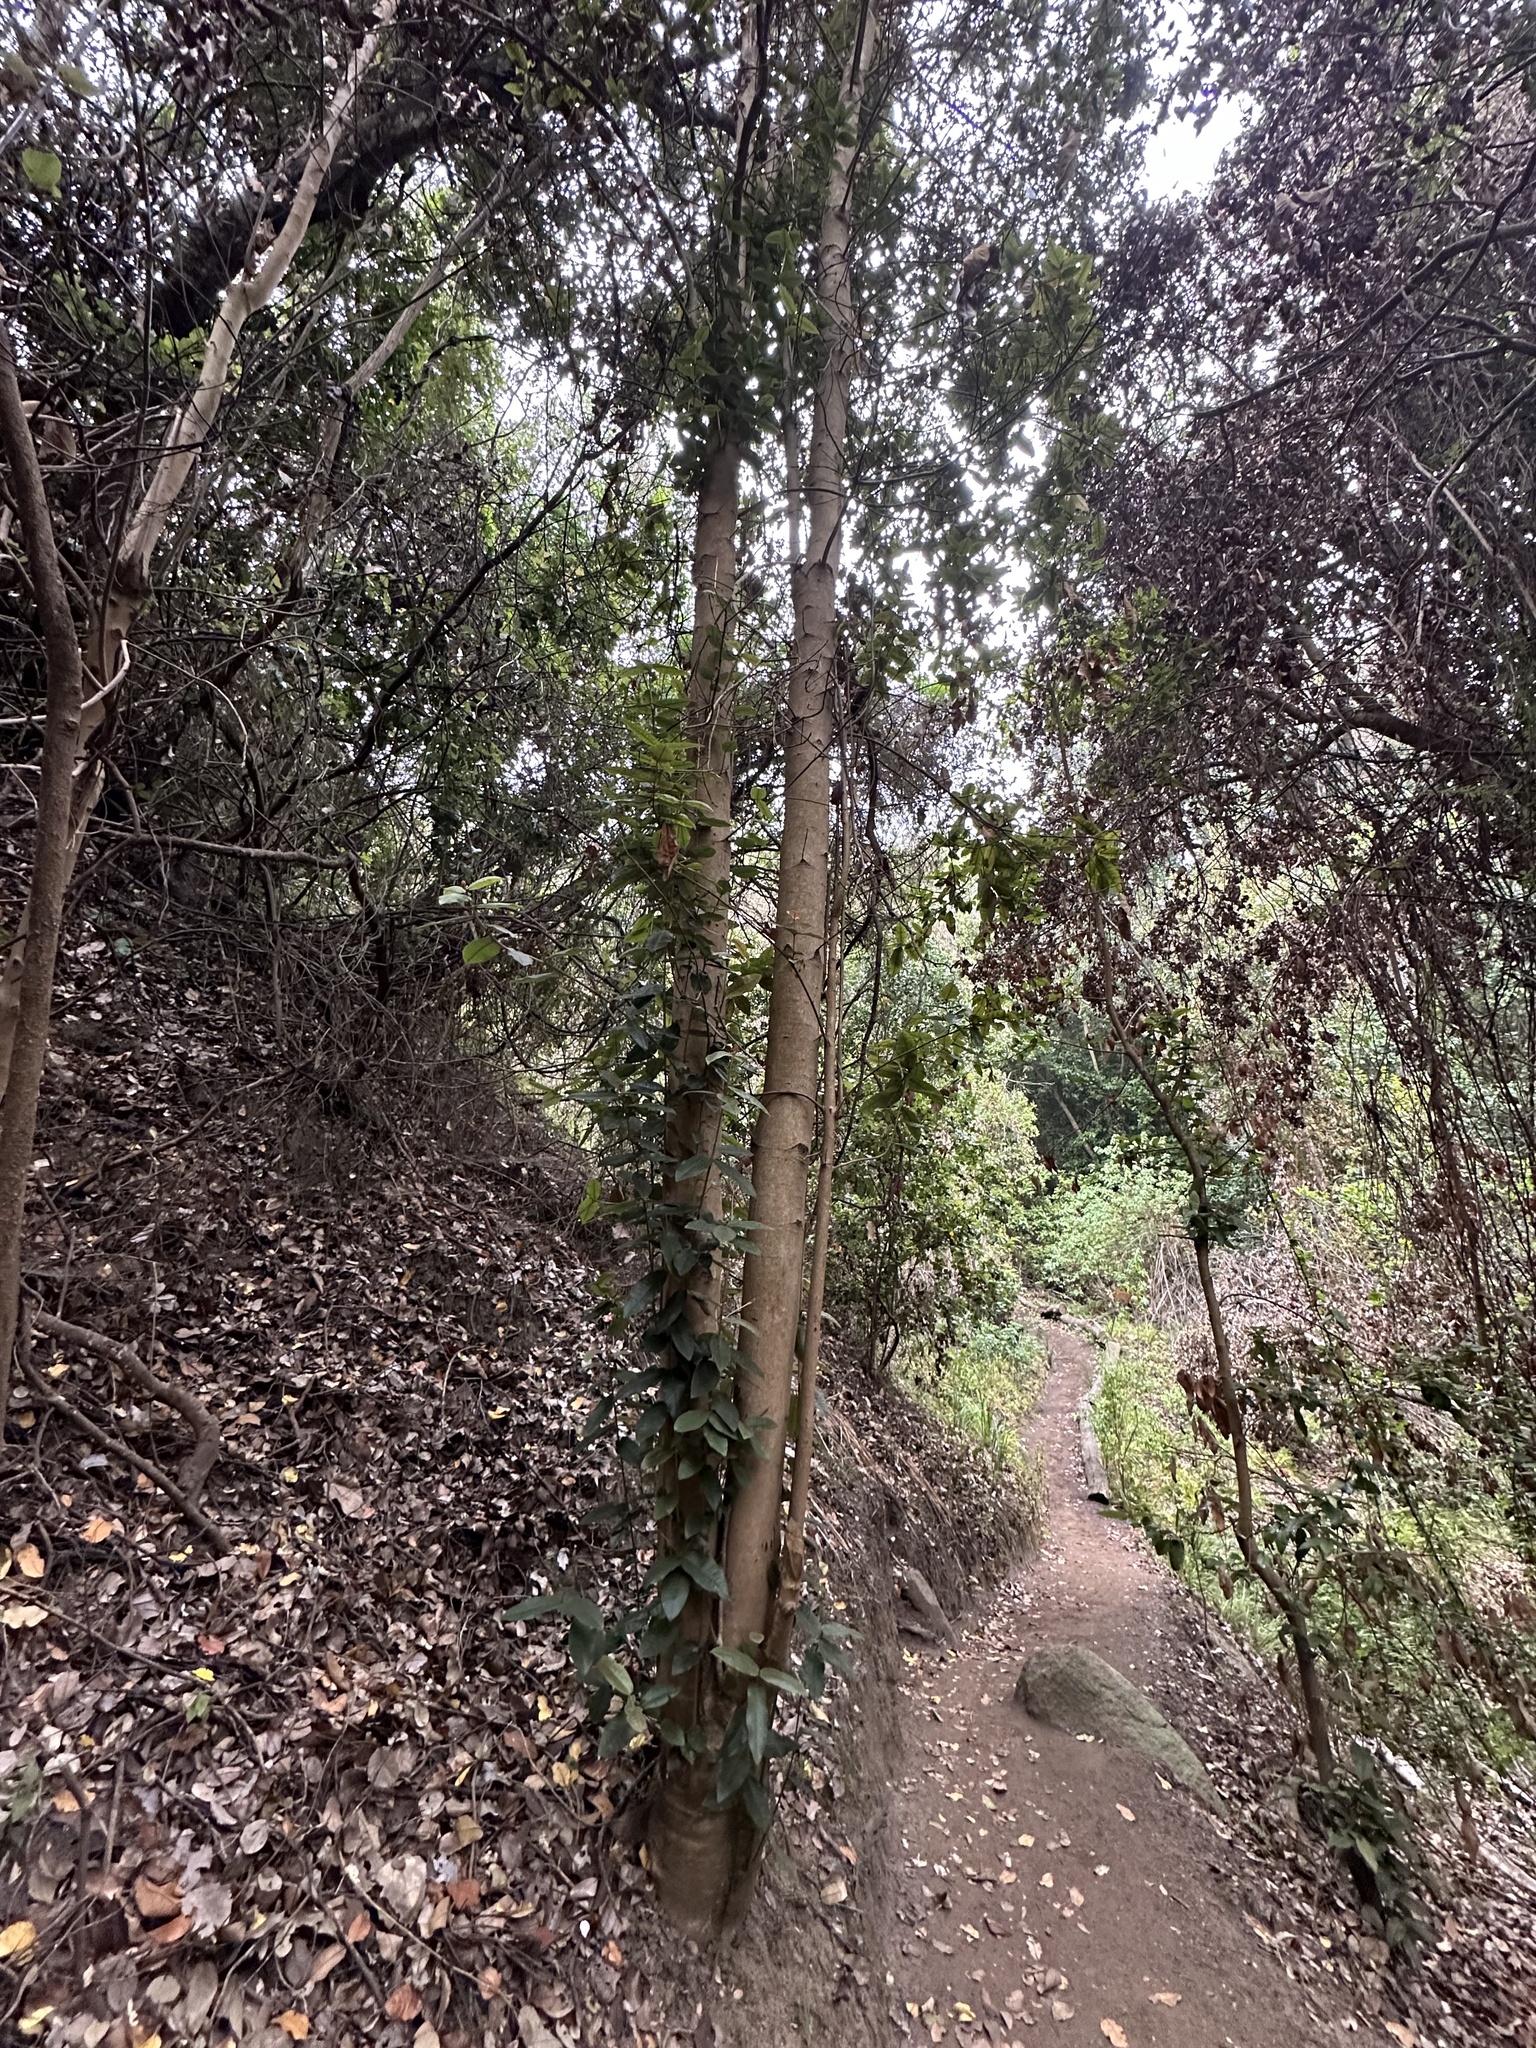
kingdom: Plantae
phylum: Tracheophyta
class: Magnoliopsida
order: Berberidopsidales
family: Aextoxicaceae
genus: Aextoxicon
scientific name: Aextoxicon punctatum
